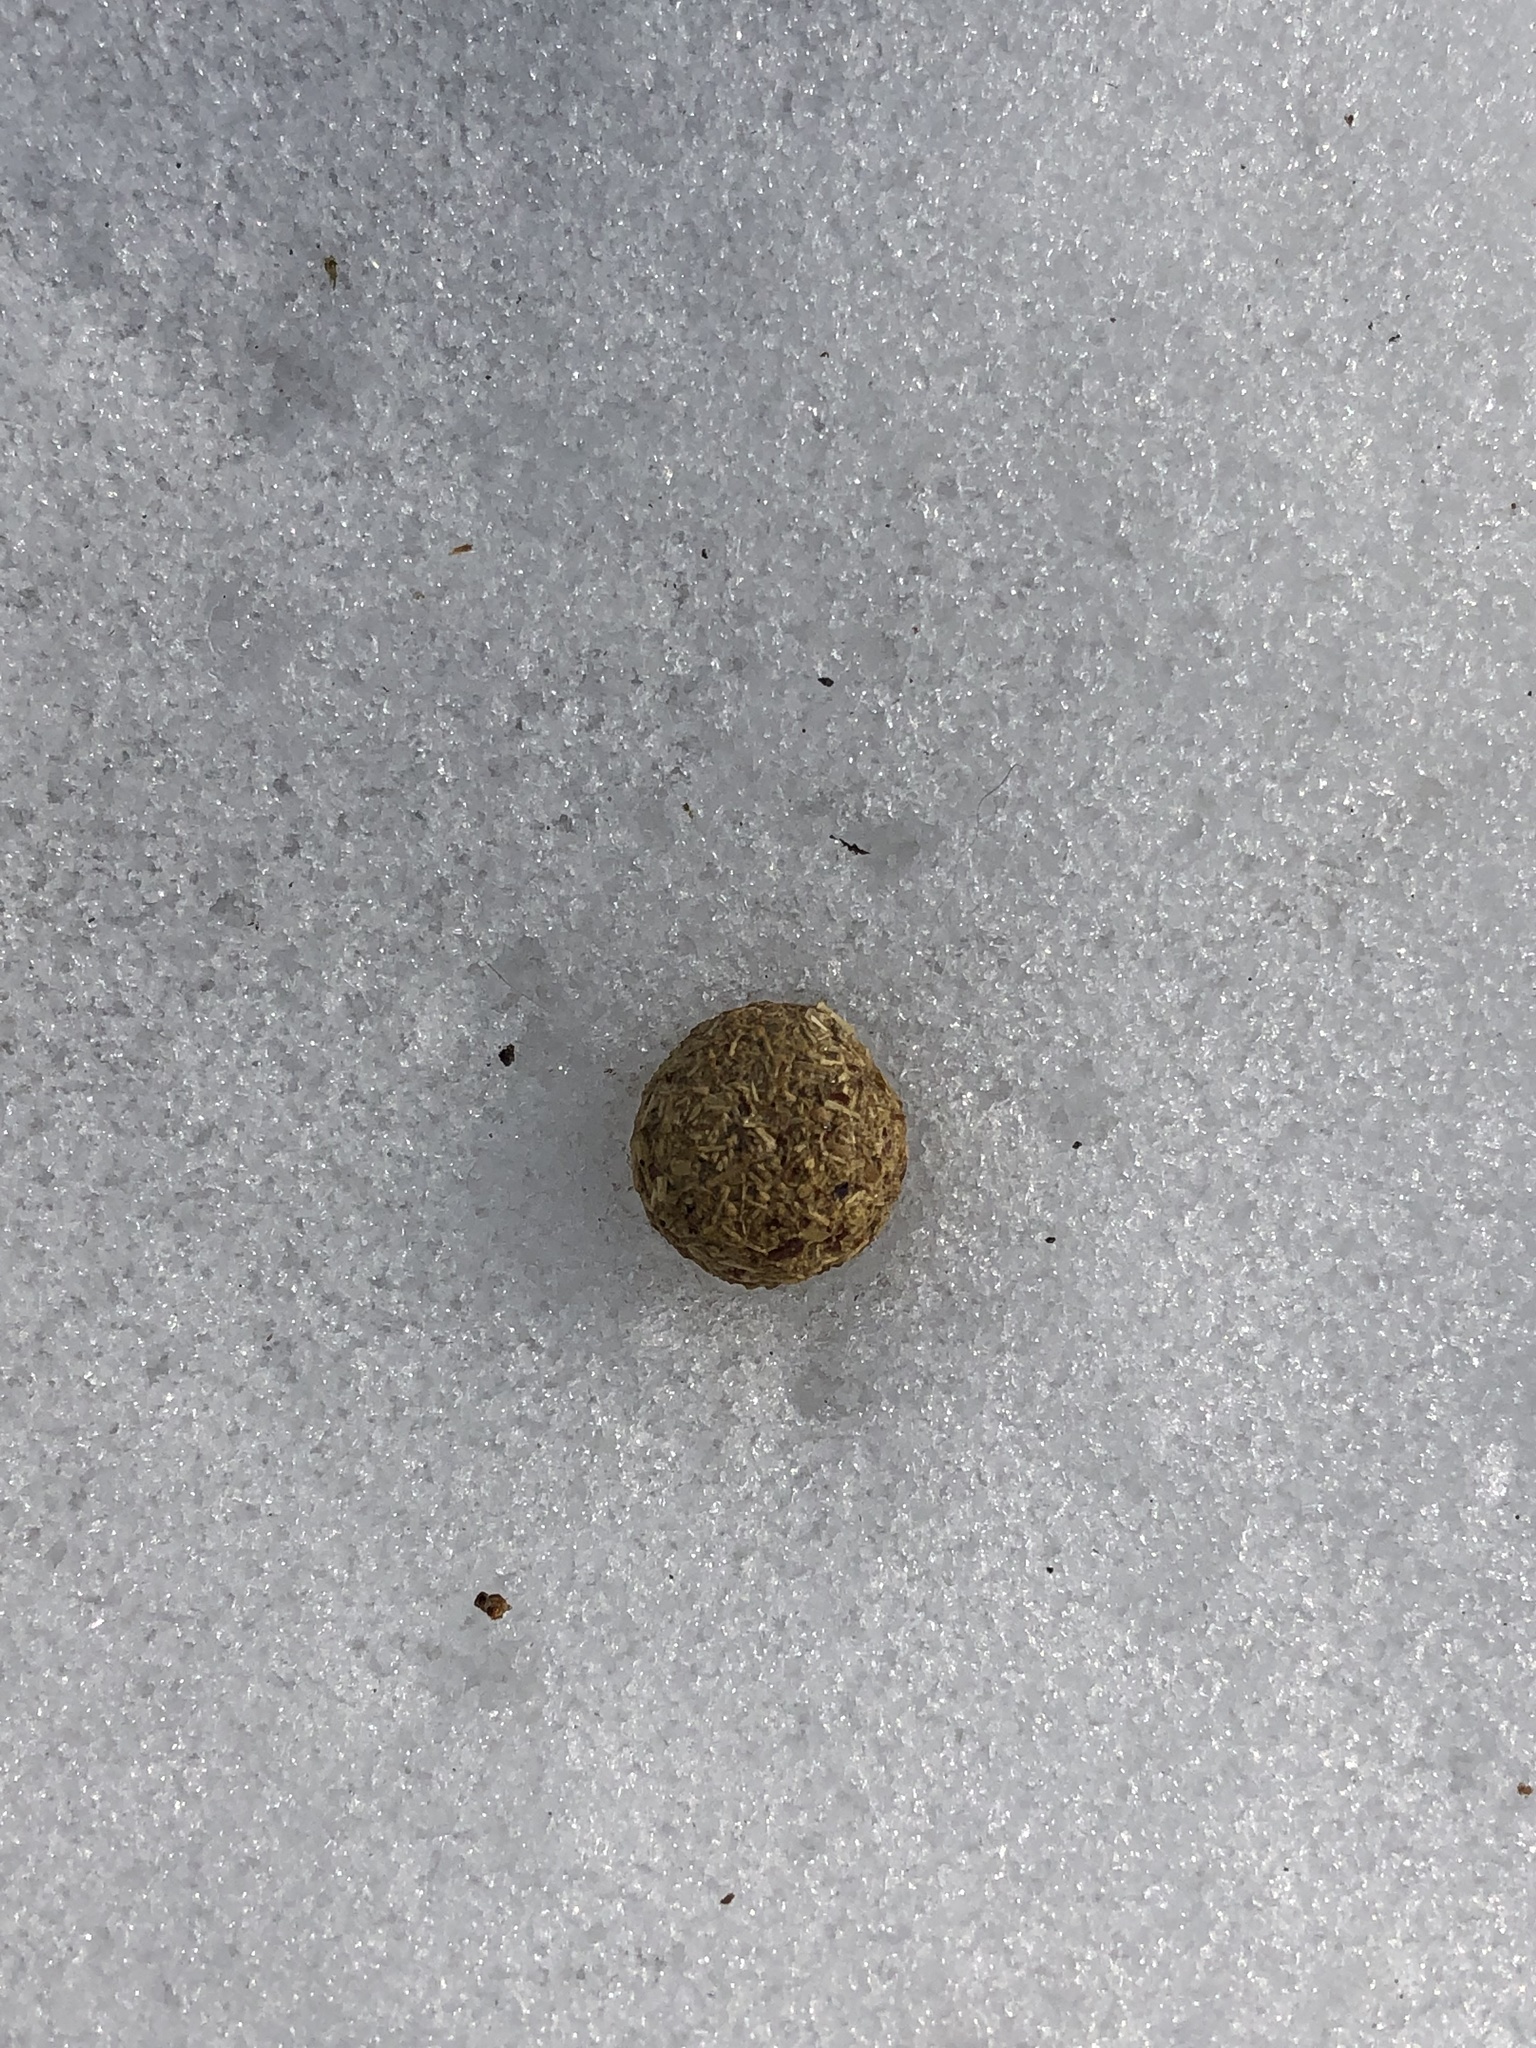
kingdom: Animalia
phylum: Chordata
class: Mammalia
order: Lagomorpha
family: Leporidae
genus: Sylvilagus
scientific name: Sylvilagus floridanus
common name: Eastern cottontail
